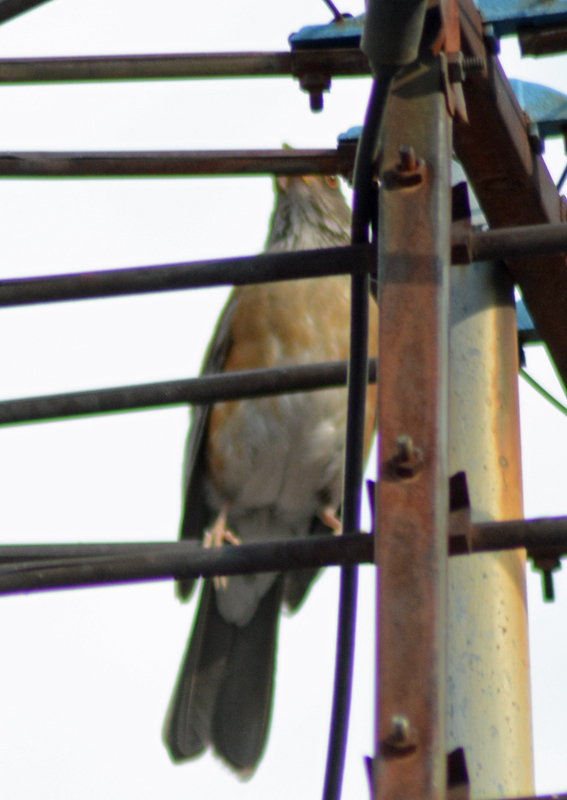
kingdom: Animalia
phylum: Chordata
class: Aves
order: Passeriformes
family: Turdidae
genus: Turdus
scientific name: Turdus rufopalliatus
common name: Rufous-backed robin
